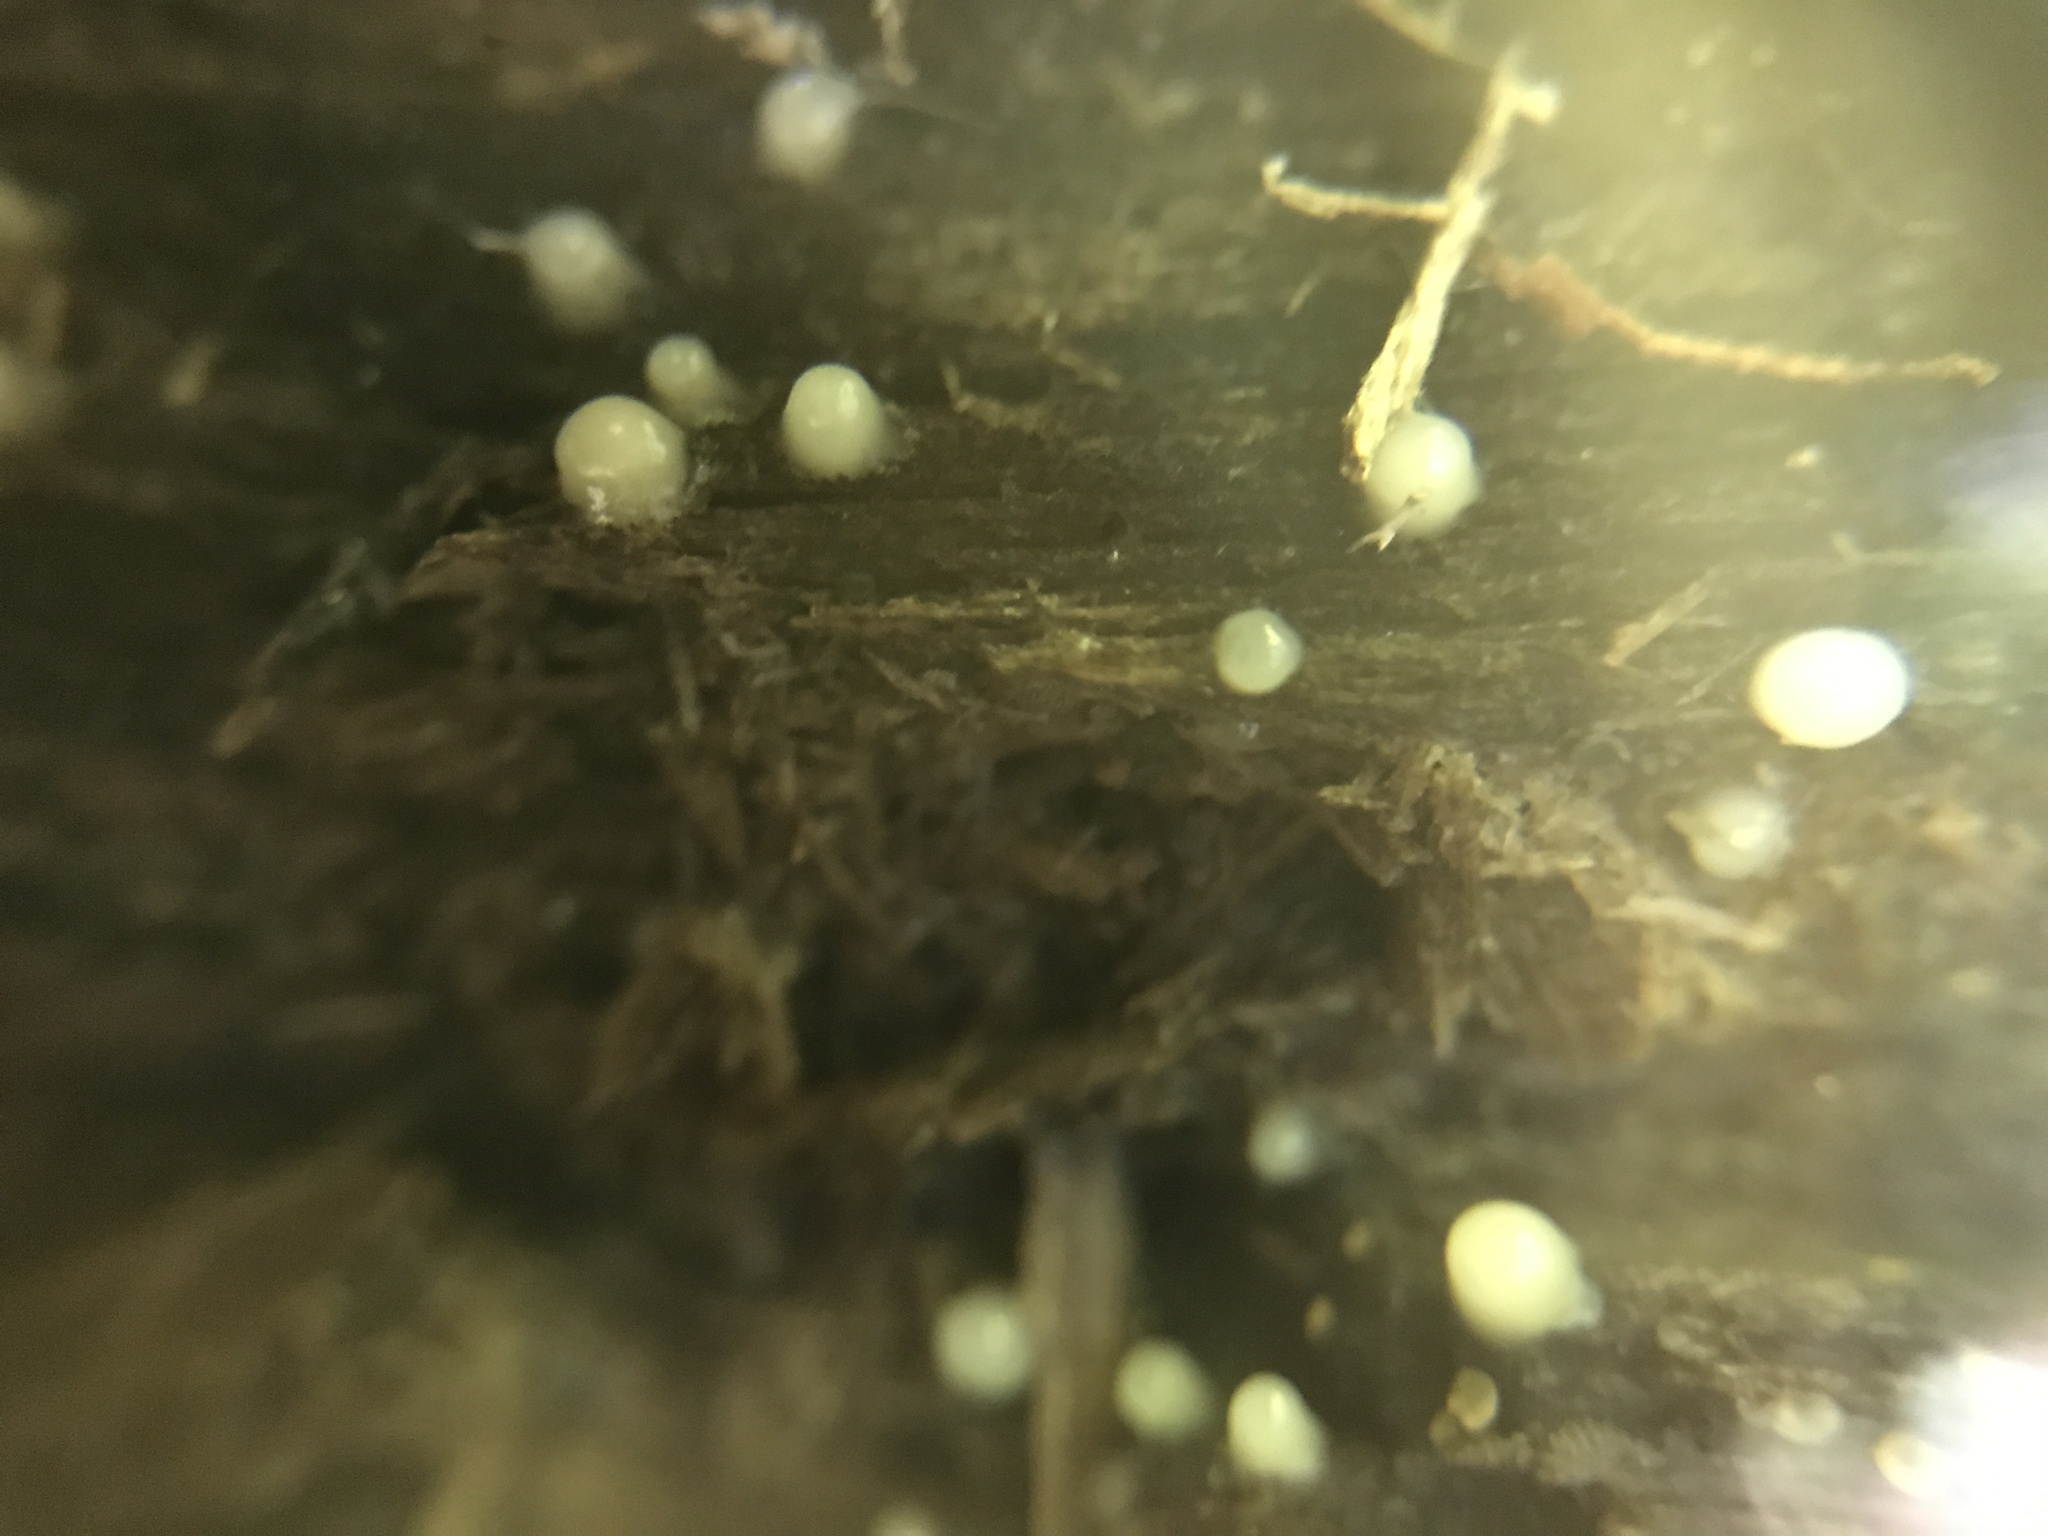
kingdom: Fungi
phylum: Basidiomycota
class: Atractiellomycetes
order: Atractiellales
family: Phleogenaceae
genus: Helicogloea
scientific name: Helicogloea compressa
